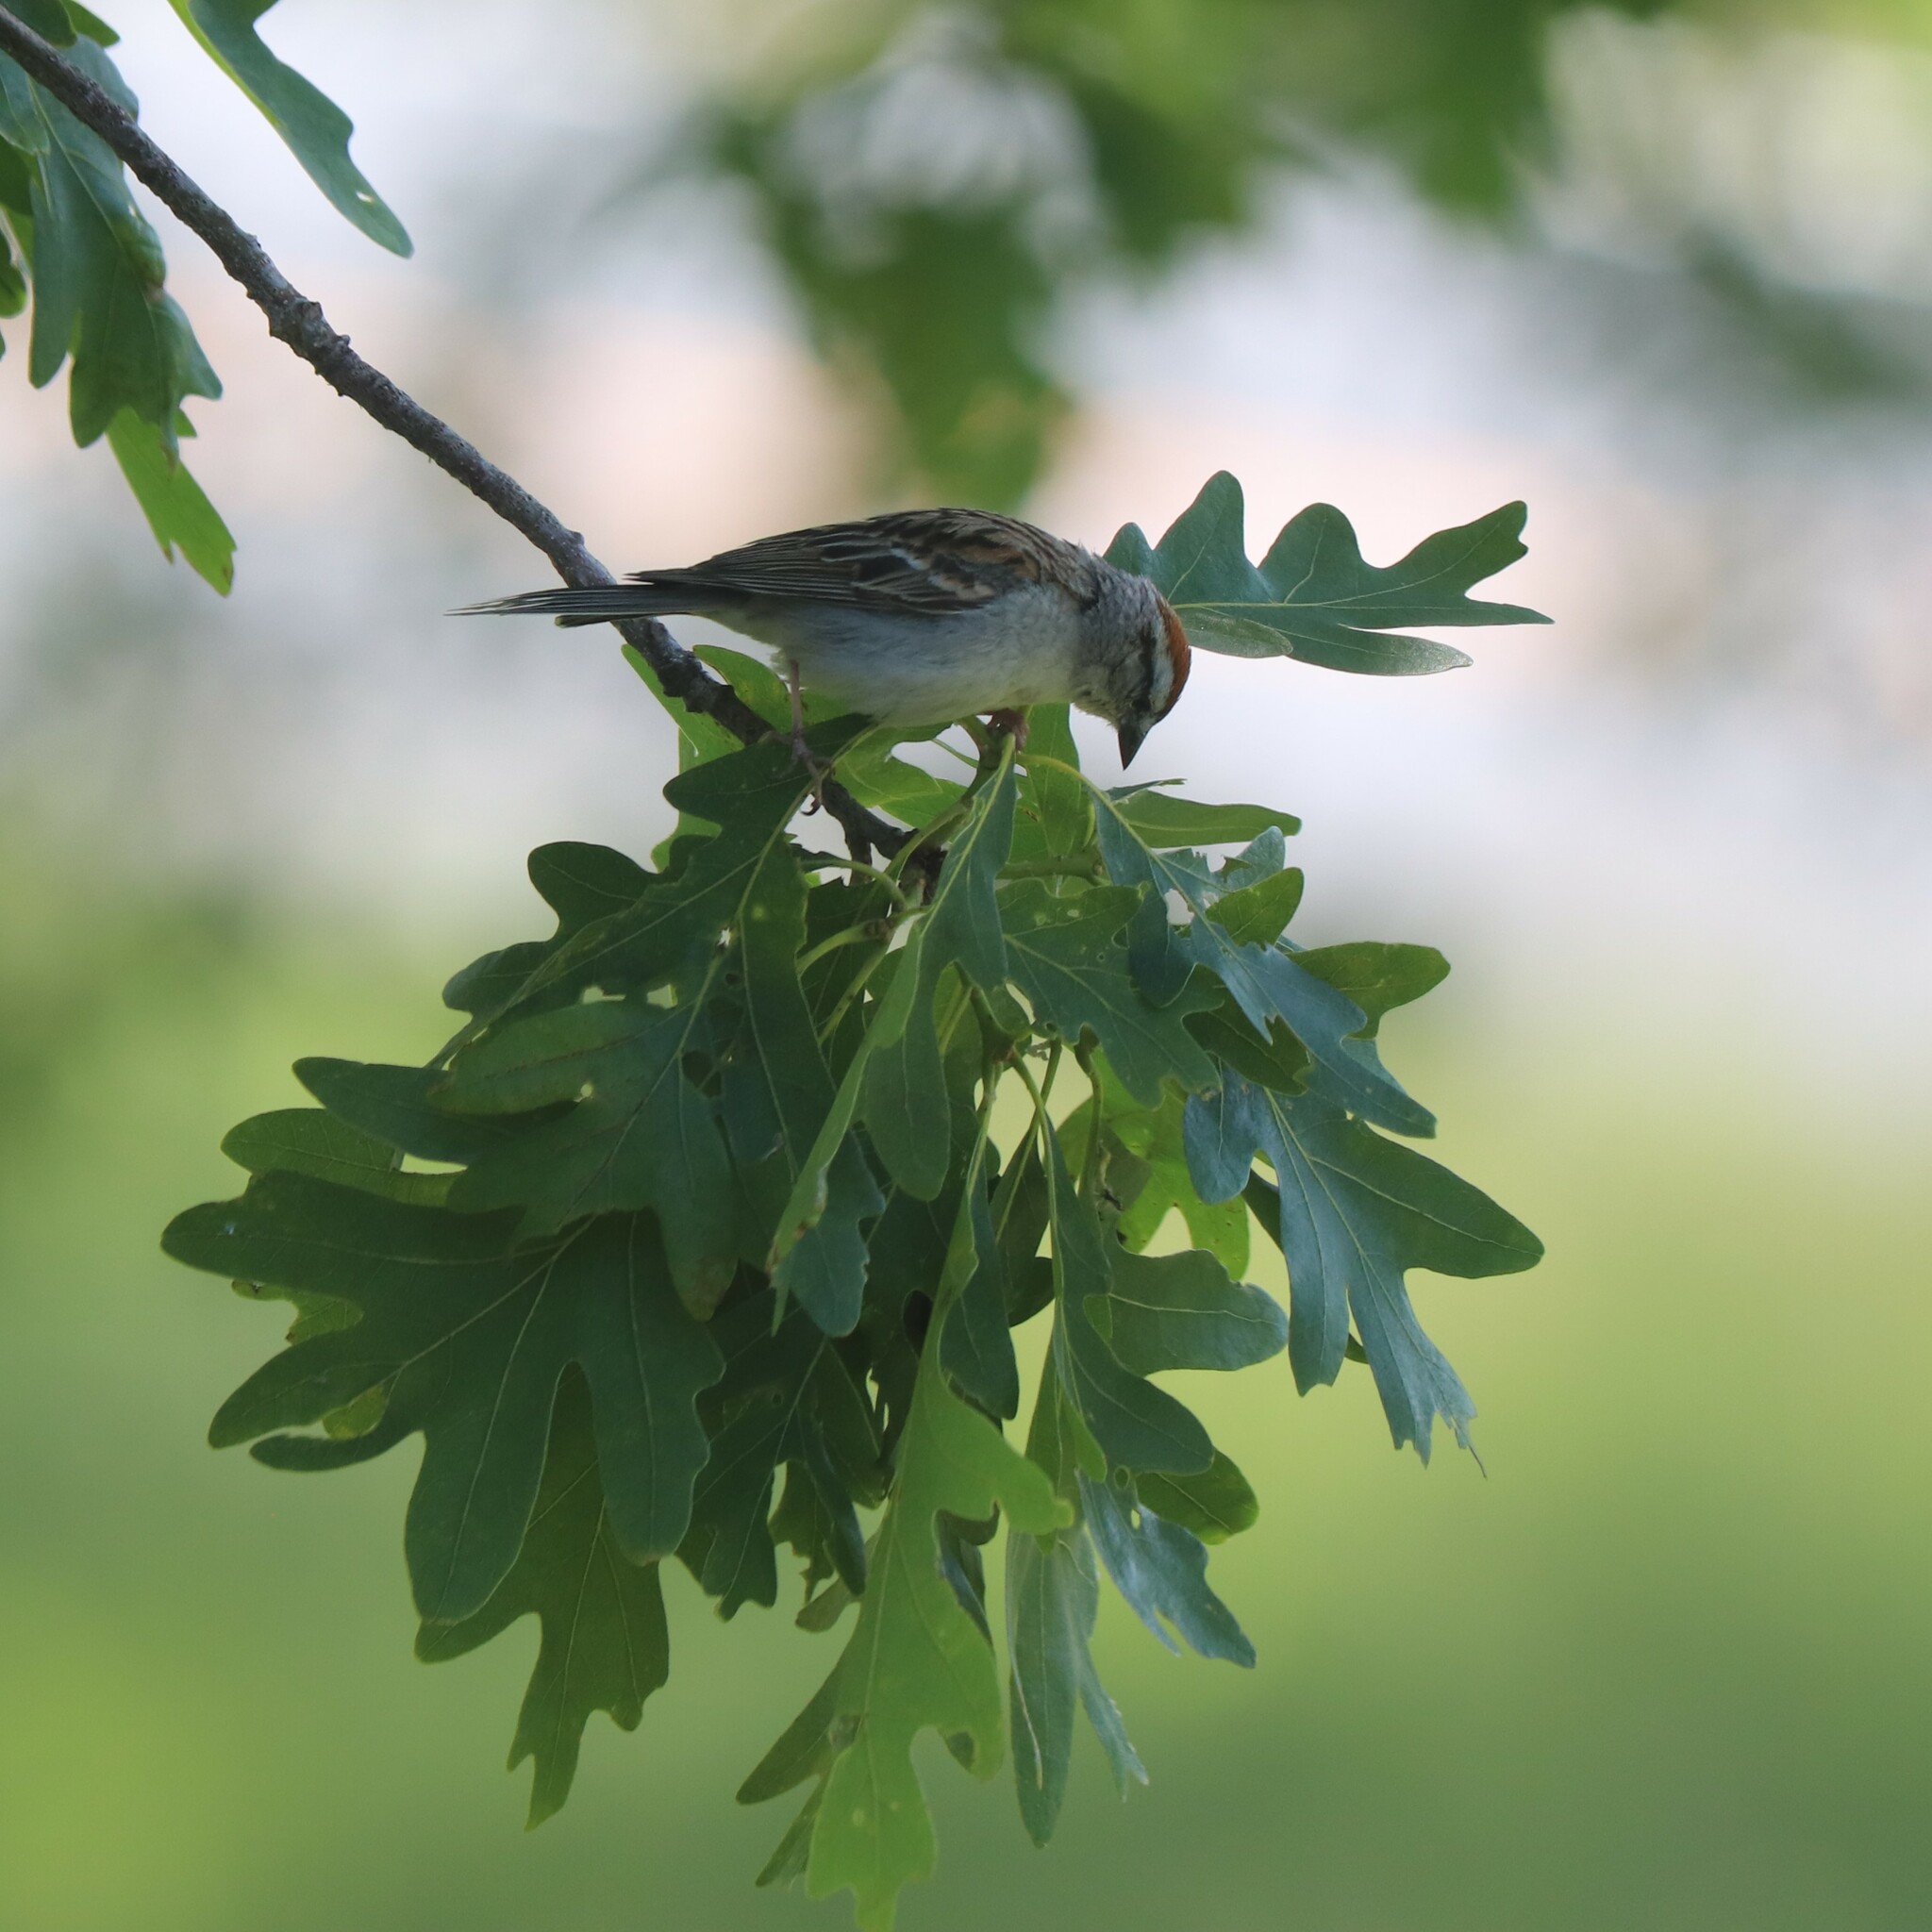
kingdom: Animalia
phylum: Chordata
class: Aves
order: Passeriformes
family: Passerellidae
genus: Spizella
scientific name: Spizella passerina
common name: Chipping sparrow
